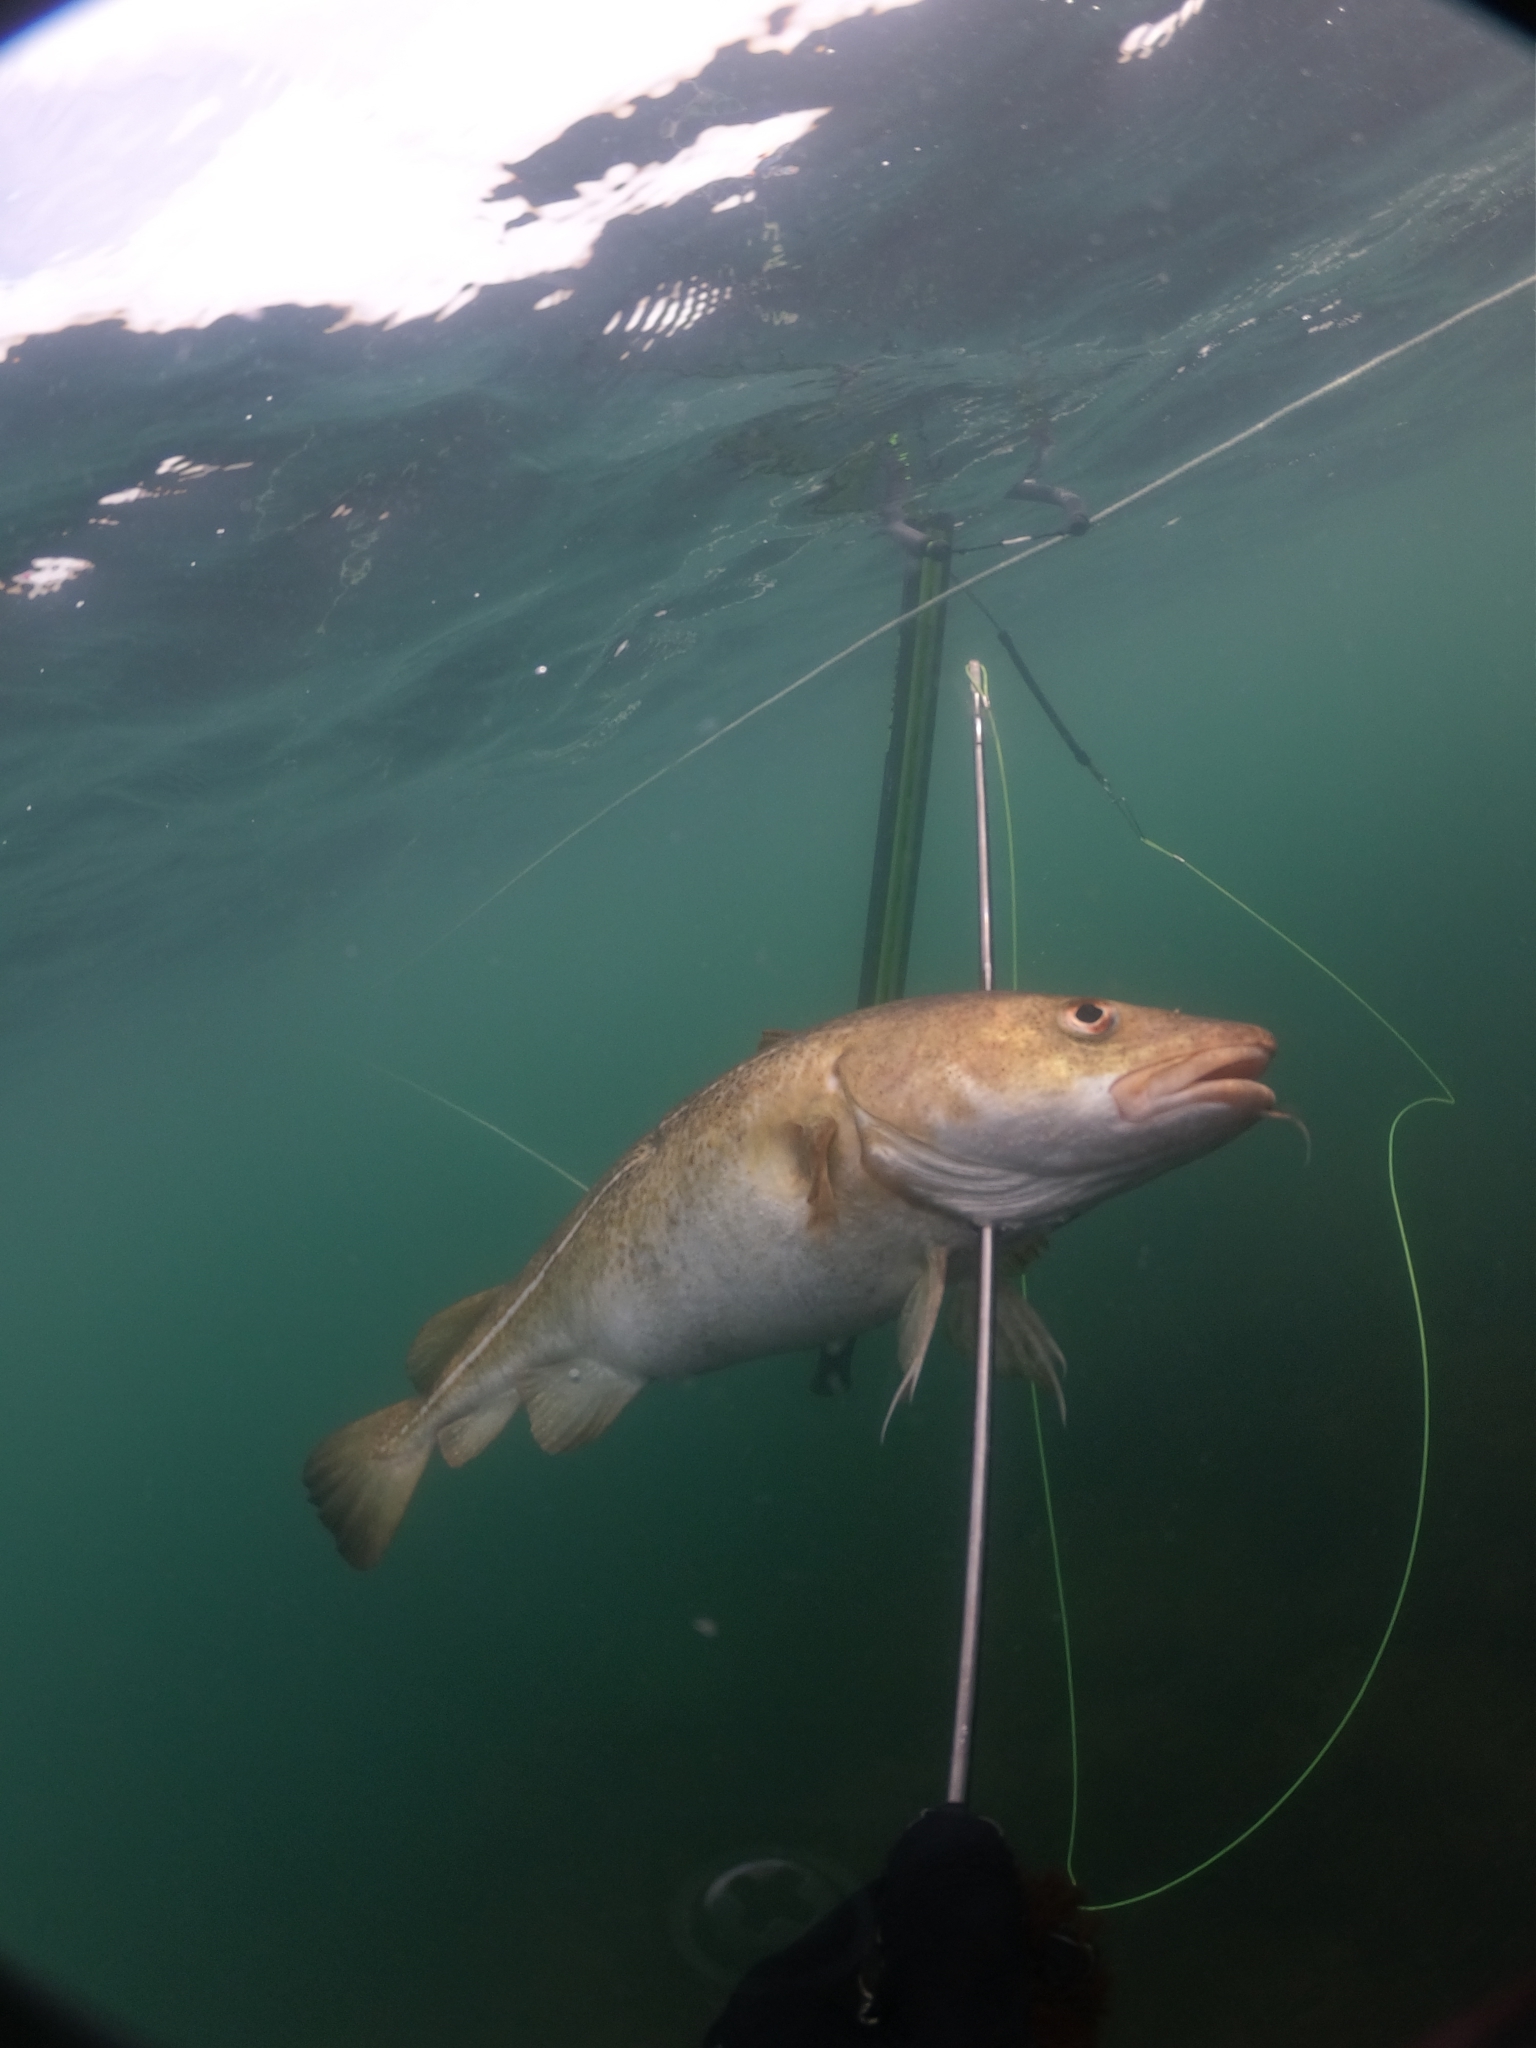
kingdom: Animalia
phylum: Chordata
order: Gadiformes
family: Gadidae
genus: Gadus
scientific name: Gadus morhua
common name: Atlantic cod
